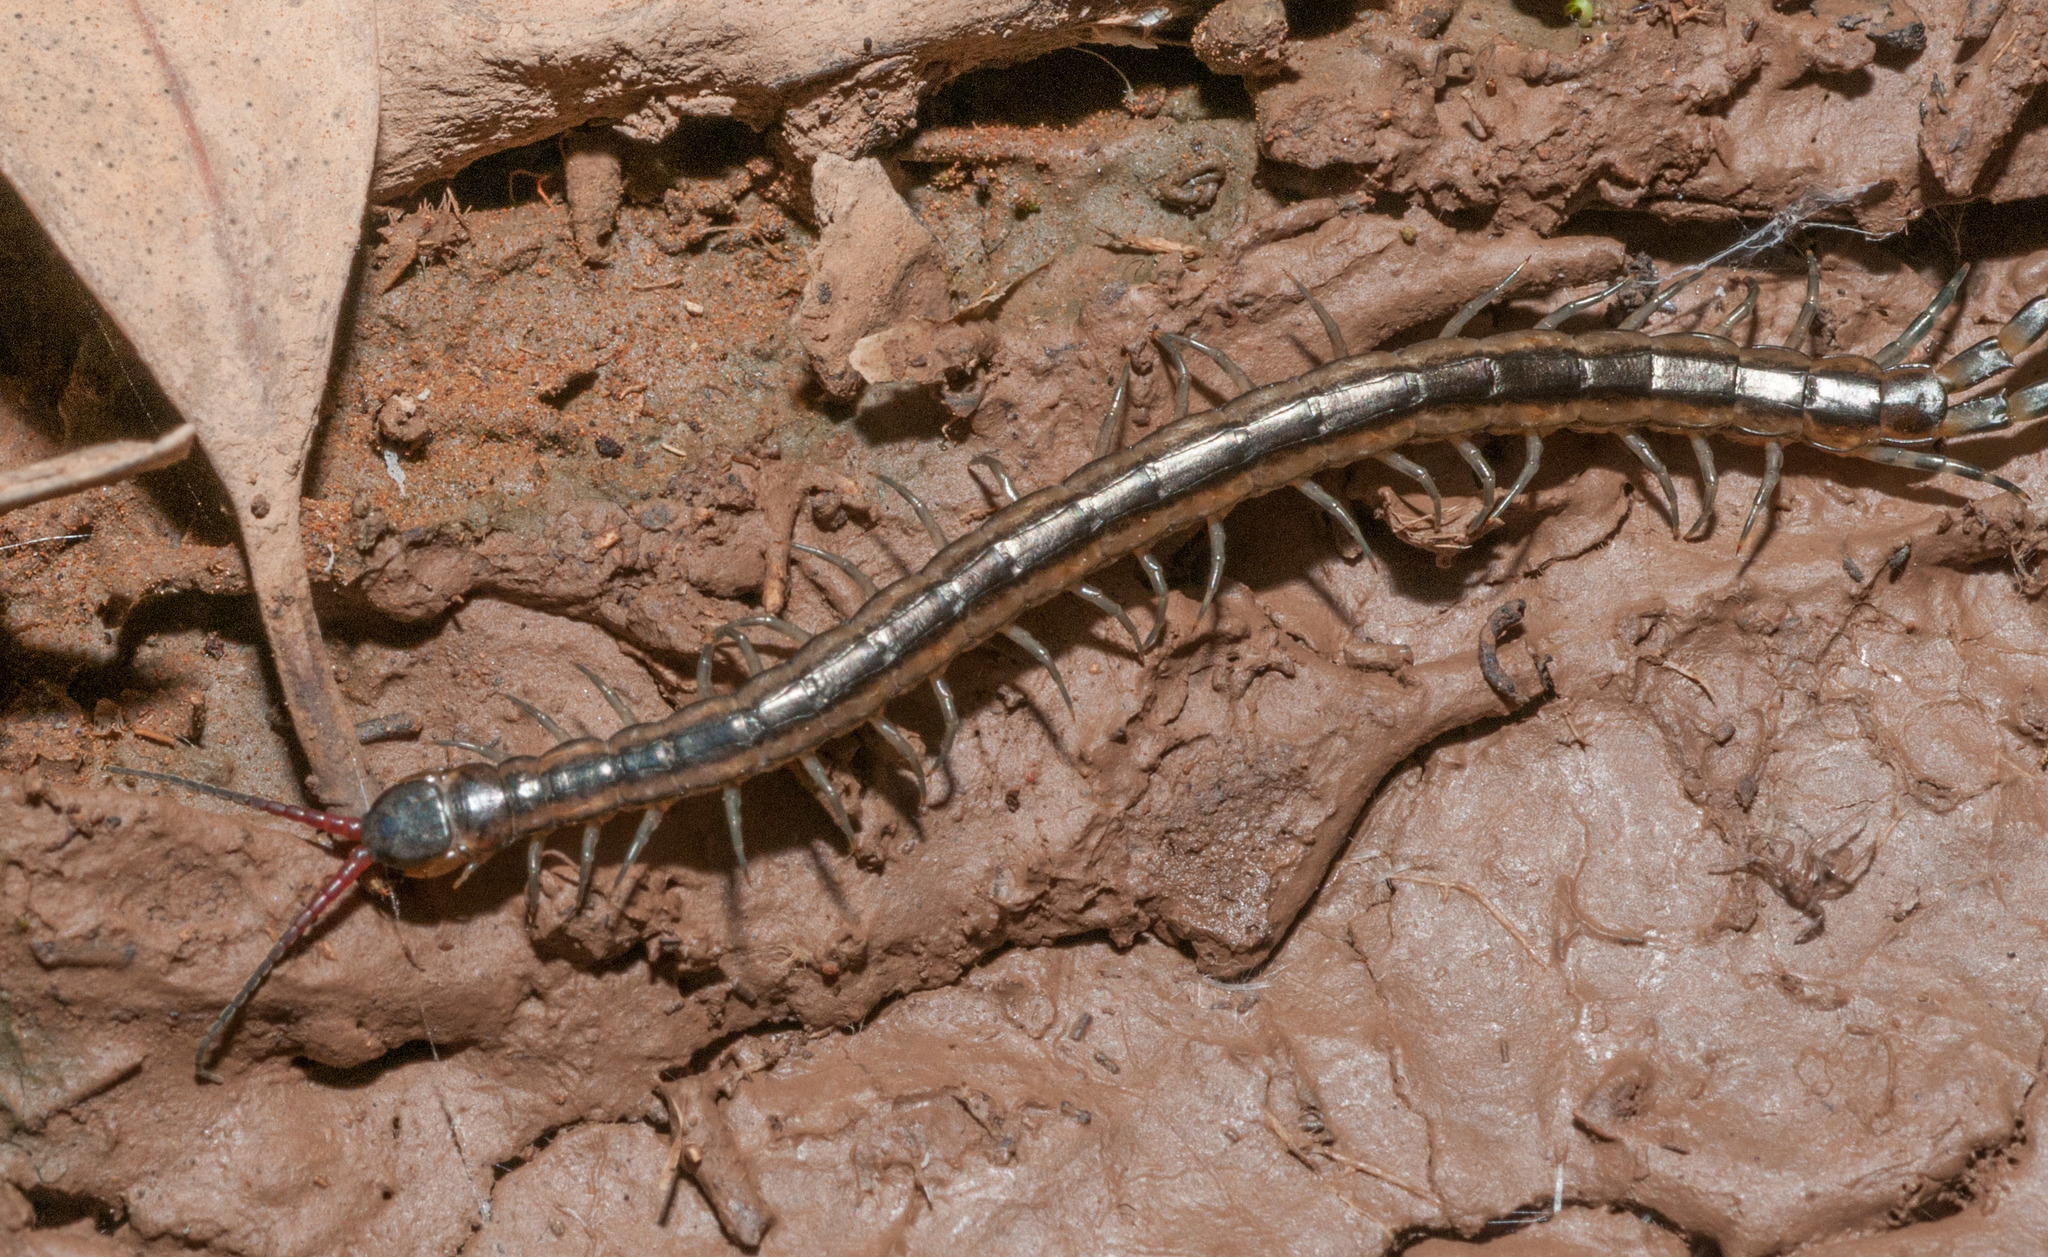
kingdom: Animalia
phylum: Arthropoda
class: Chilopoda
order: Scolopendromorpha
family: Scolopendridae
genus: Scolopendra
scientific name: Scolopendra laeta
